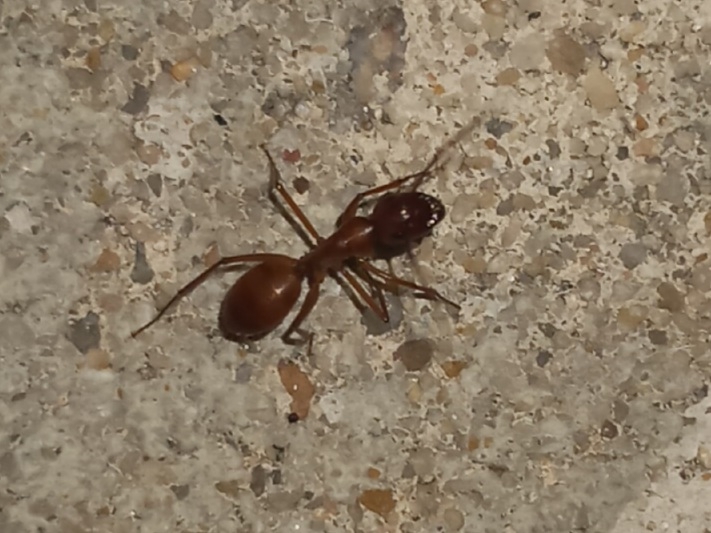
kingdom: Animalia
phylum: Arthropoda
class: Insecta
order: Hymenoptera
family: Formicidae
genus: Camponotus
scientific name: Camponotus castaneus
